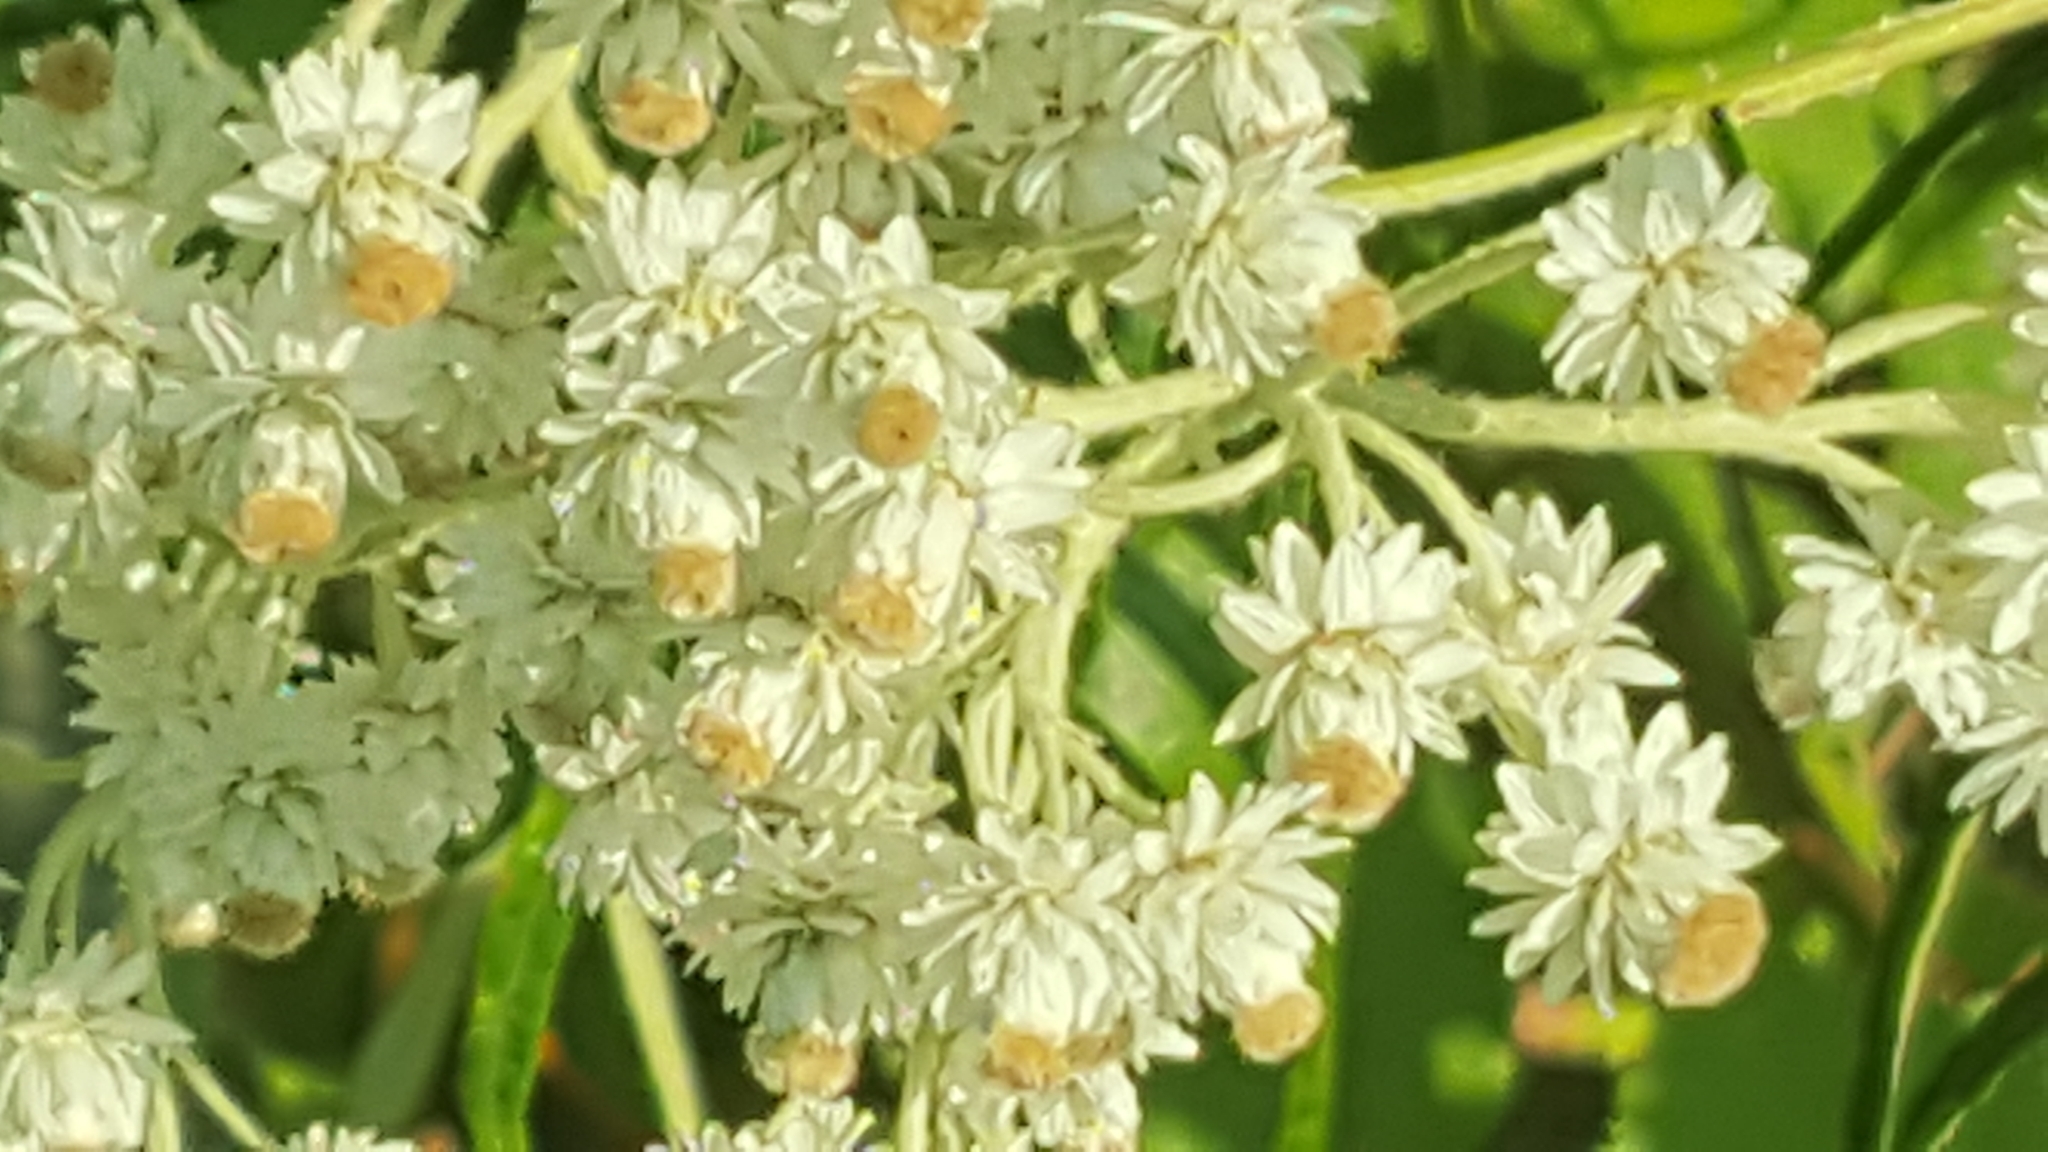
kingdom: Plantae
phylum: Tracheophyta
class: Magnoliopsida
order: Asterales
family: Asteraceae
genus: Anaphalis
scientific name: Anaphalis margaritacea
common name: Pearly everlasting
